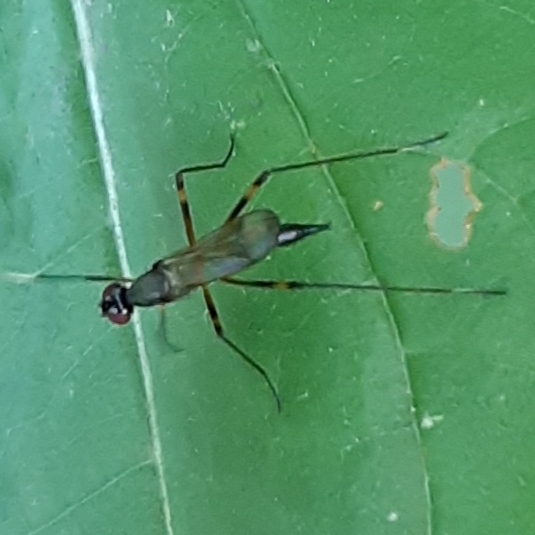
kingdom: Animalia
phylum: Arthropoda
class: Insecta
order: Diptera
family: Micropezidae
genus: Rainieria
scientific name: Rainieria antennaepes
